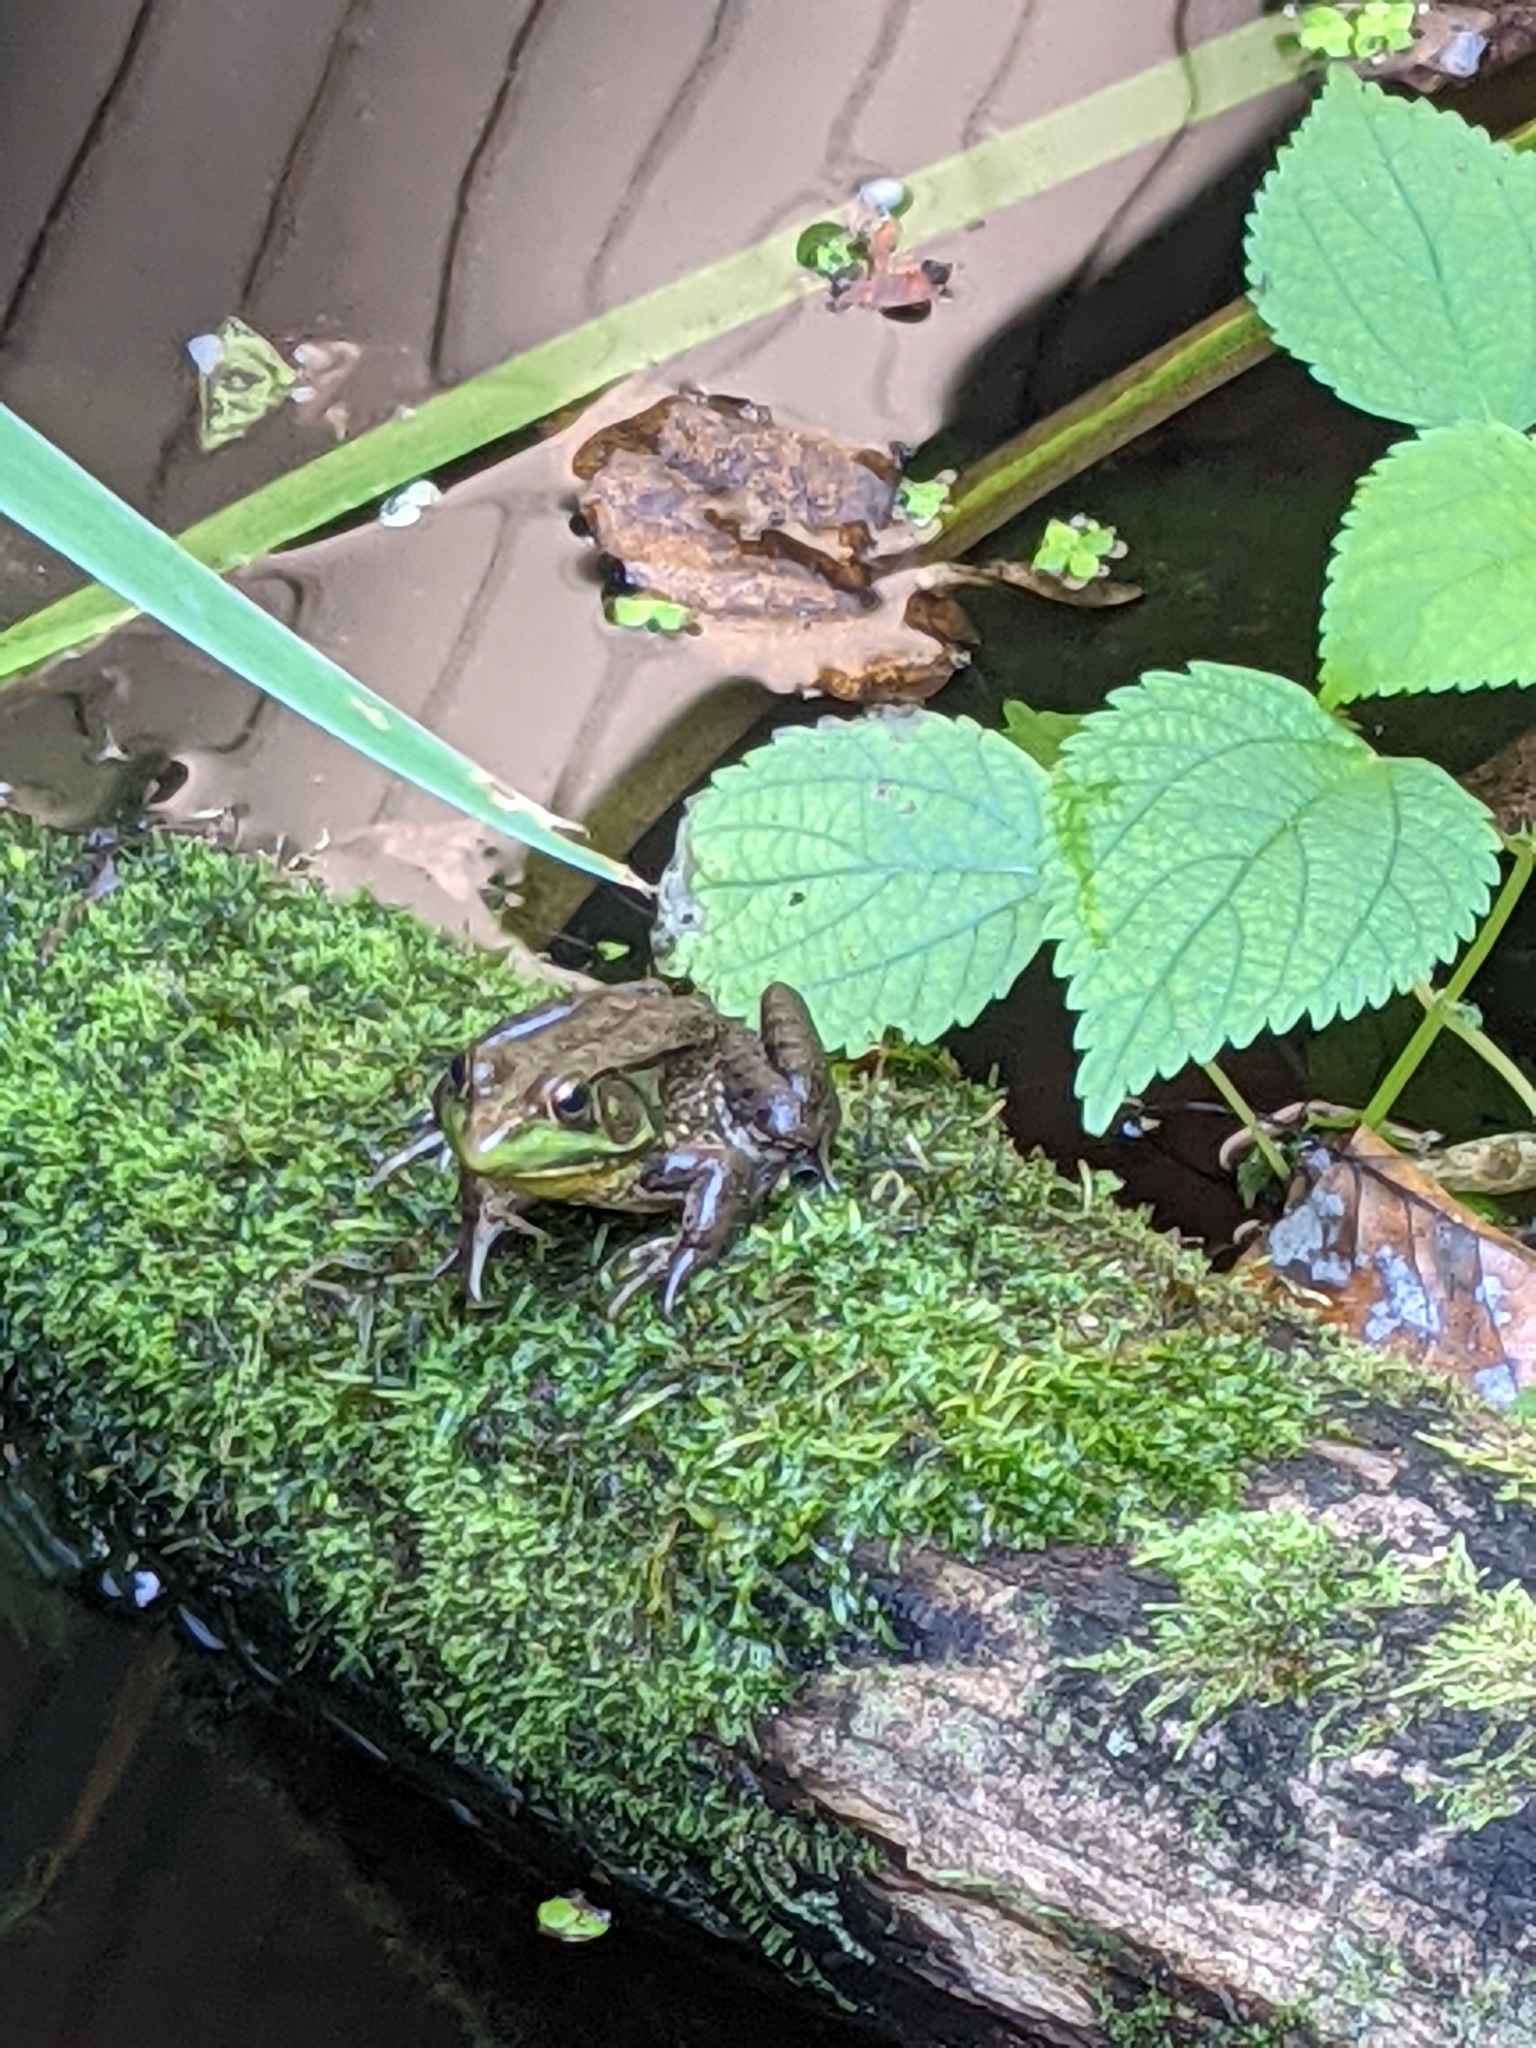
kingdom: Animalia
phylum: Chordata
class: Amphibia
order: Anura
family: Ranidae
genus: Lithobates
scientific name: Lithobates clamitans
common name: Green frog
